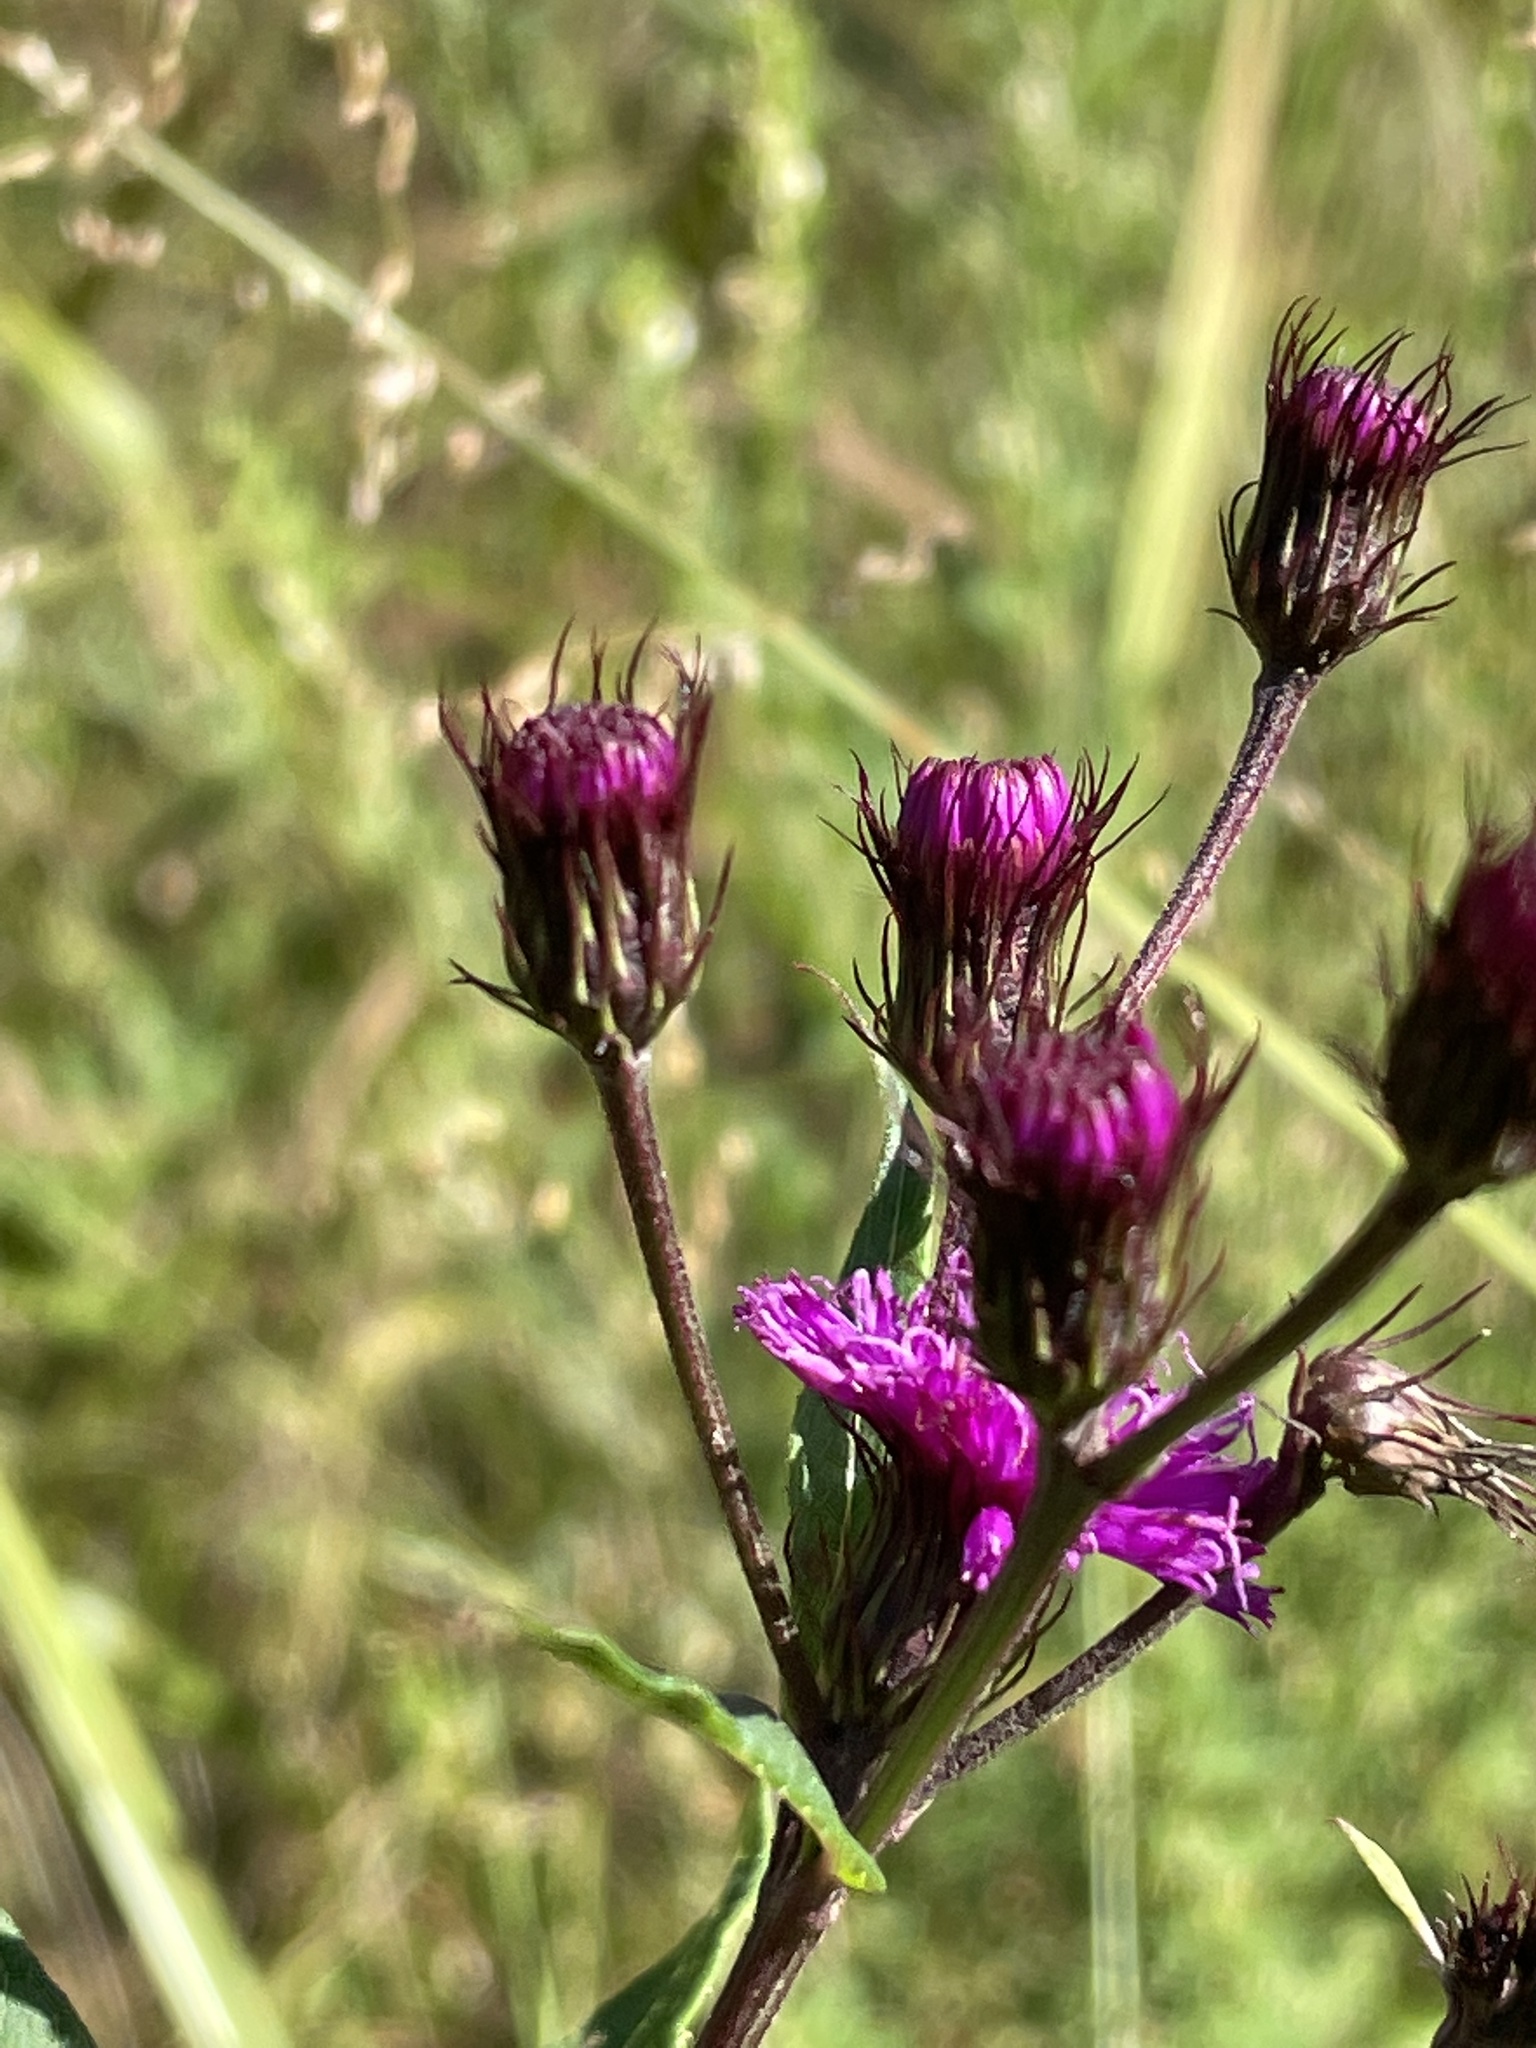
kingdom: Plantae
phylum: Tracheophyta
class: Magnoliopsida
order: Asterales
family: Asteraceae
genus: Vernonia
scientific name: Vernonia noveboracensis
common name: New york ironweed
